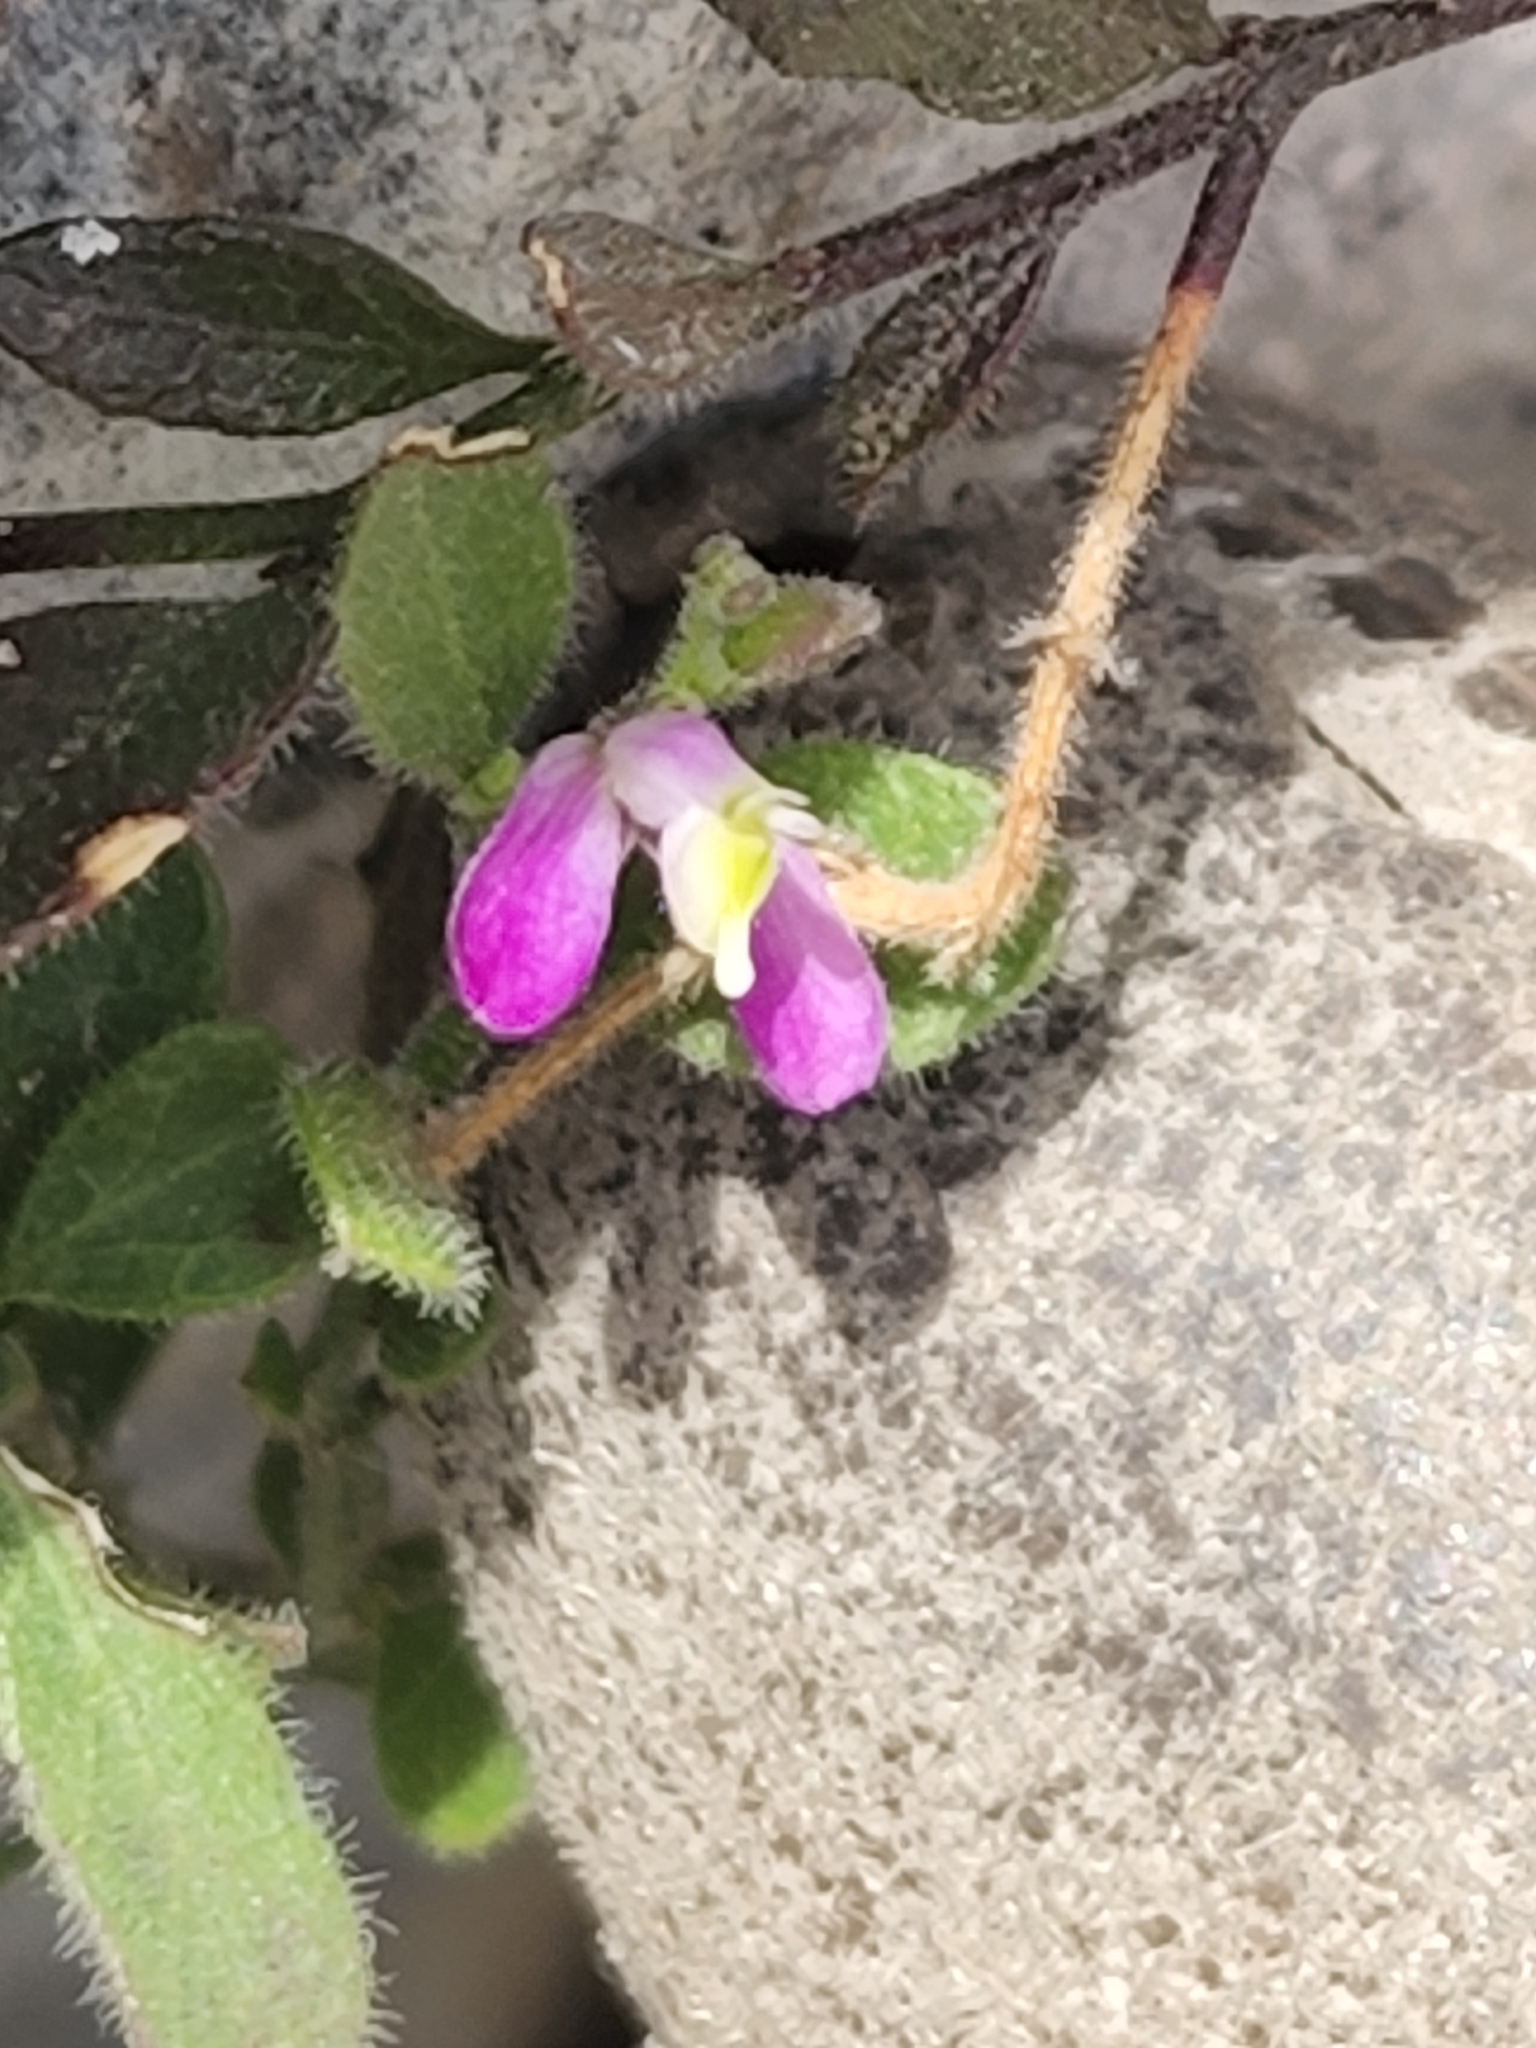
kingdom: Plantae
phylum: Tracheophyta
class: Magnoliopsida
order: Fabales
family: Polygalaceae
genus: Rhinotropis
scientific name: Rhinotropis lindheimeri
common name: Shrubby milkwort
